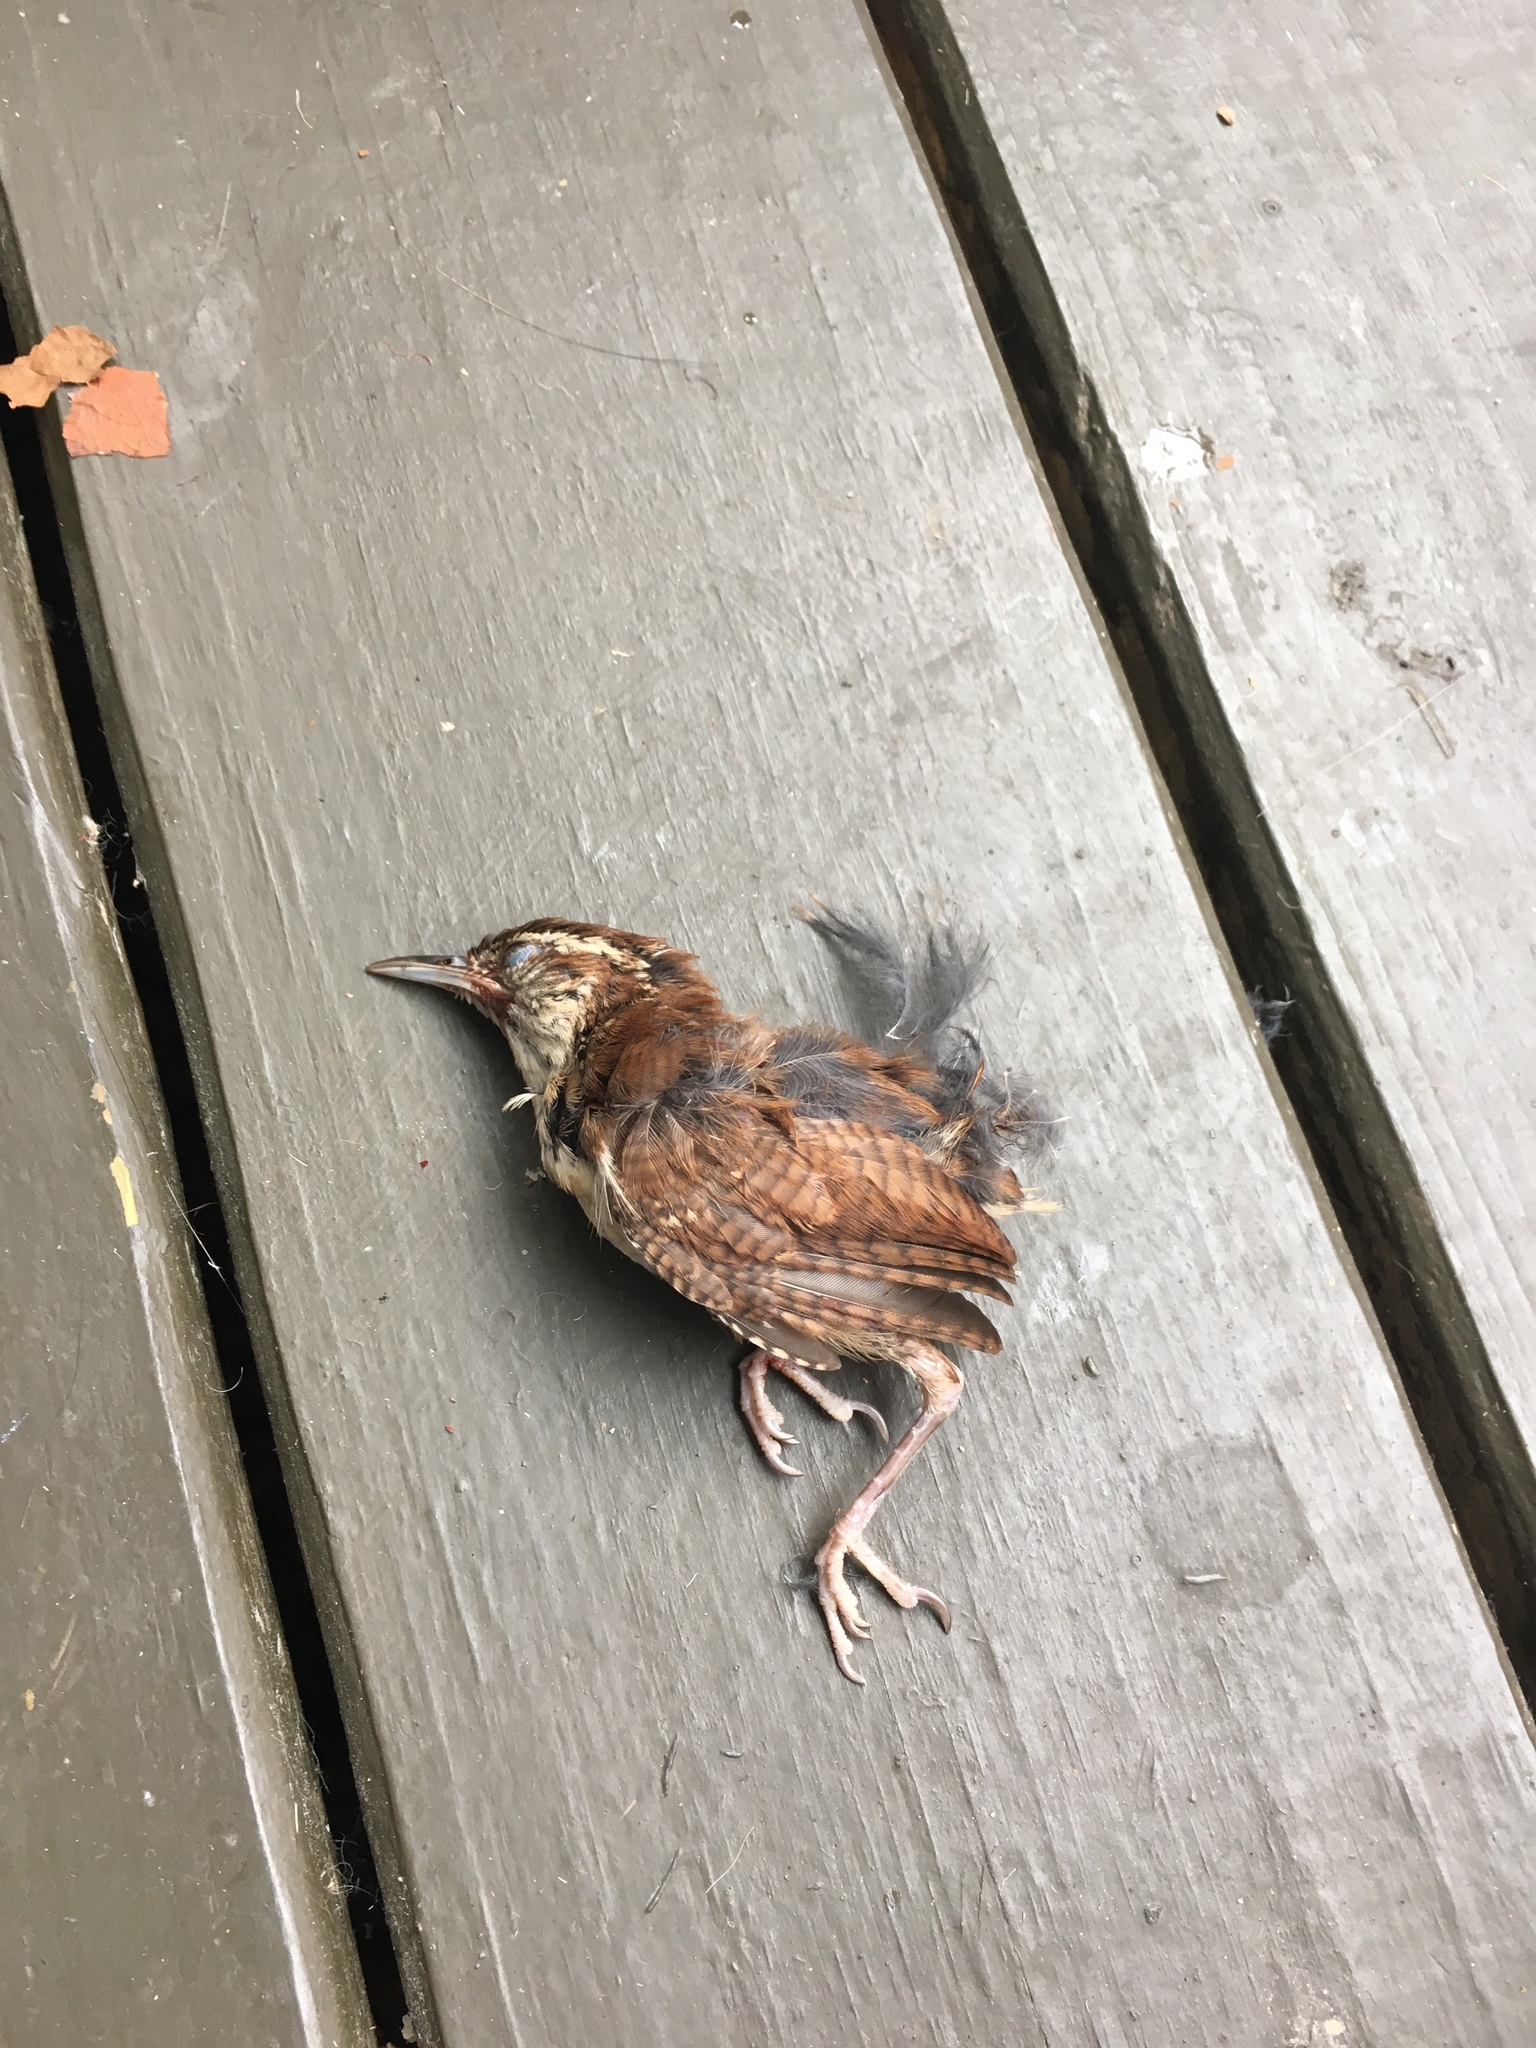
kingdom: Animalia
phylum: Chordata
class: Aves
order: Passeriformes
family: Troglodytidae
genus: Thryothorus
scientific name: Thryothorus ludovicianus
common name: Carolina wren
